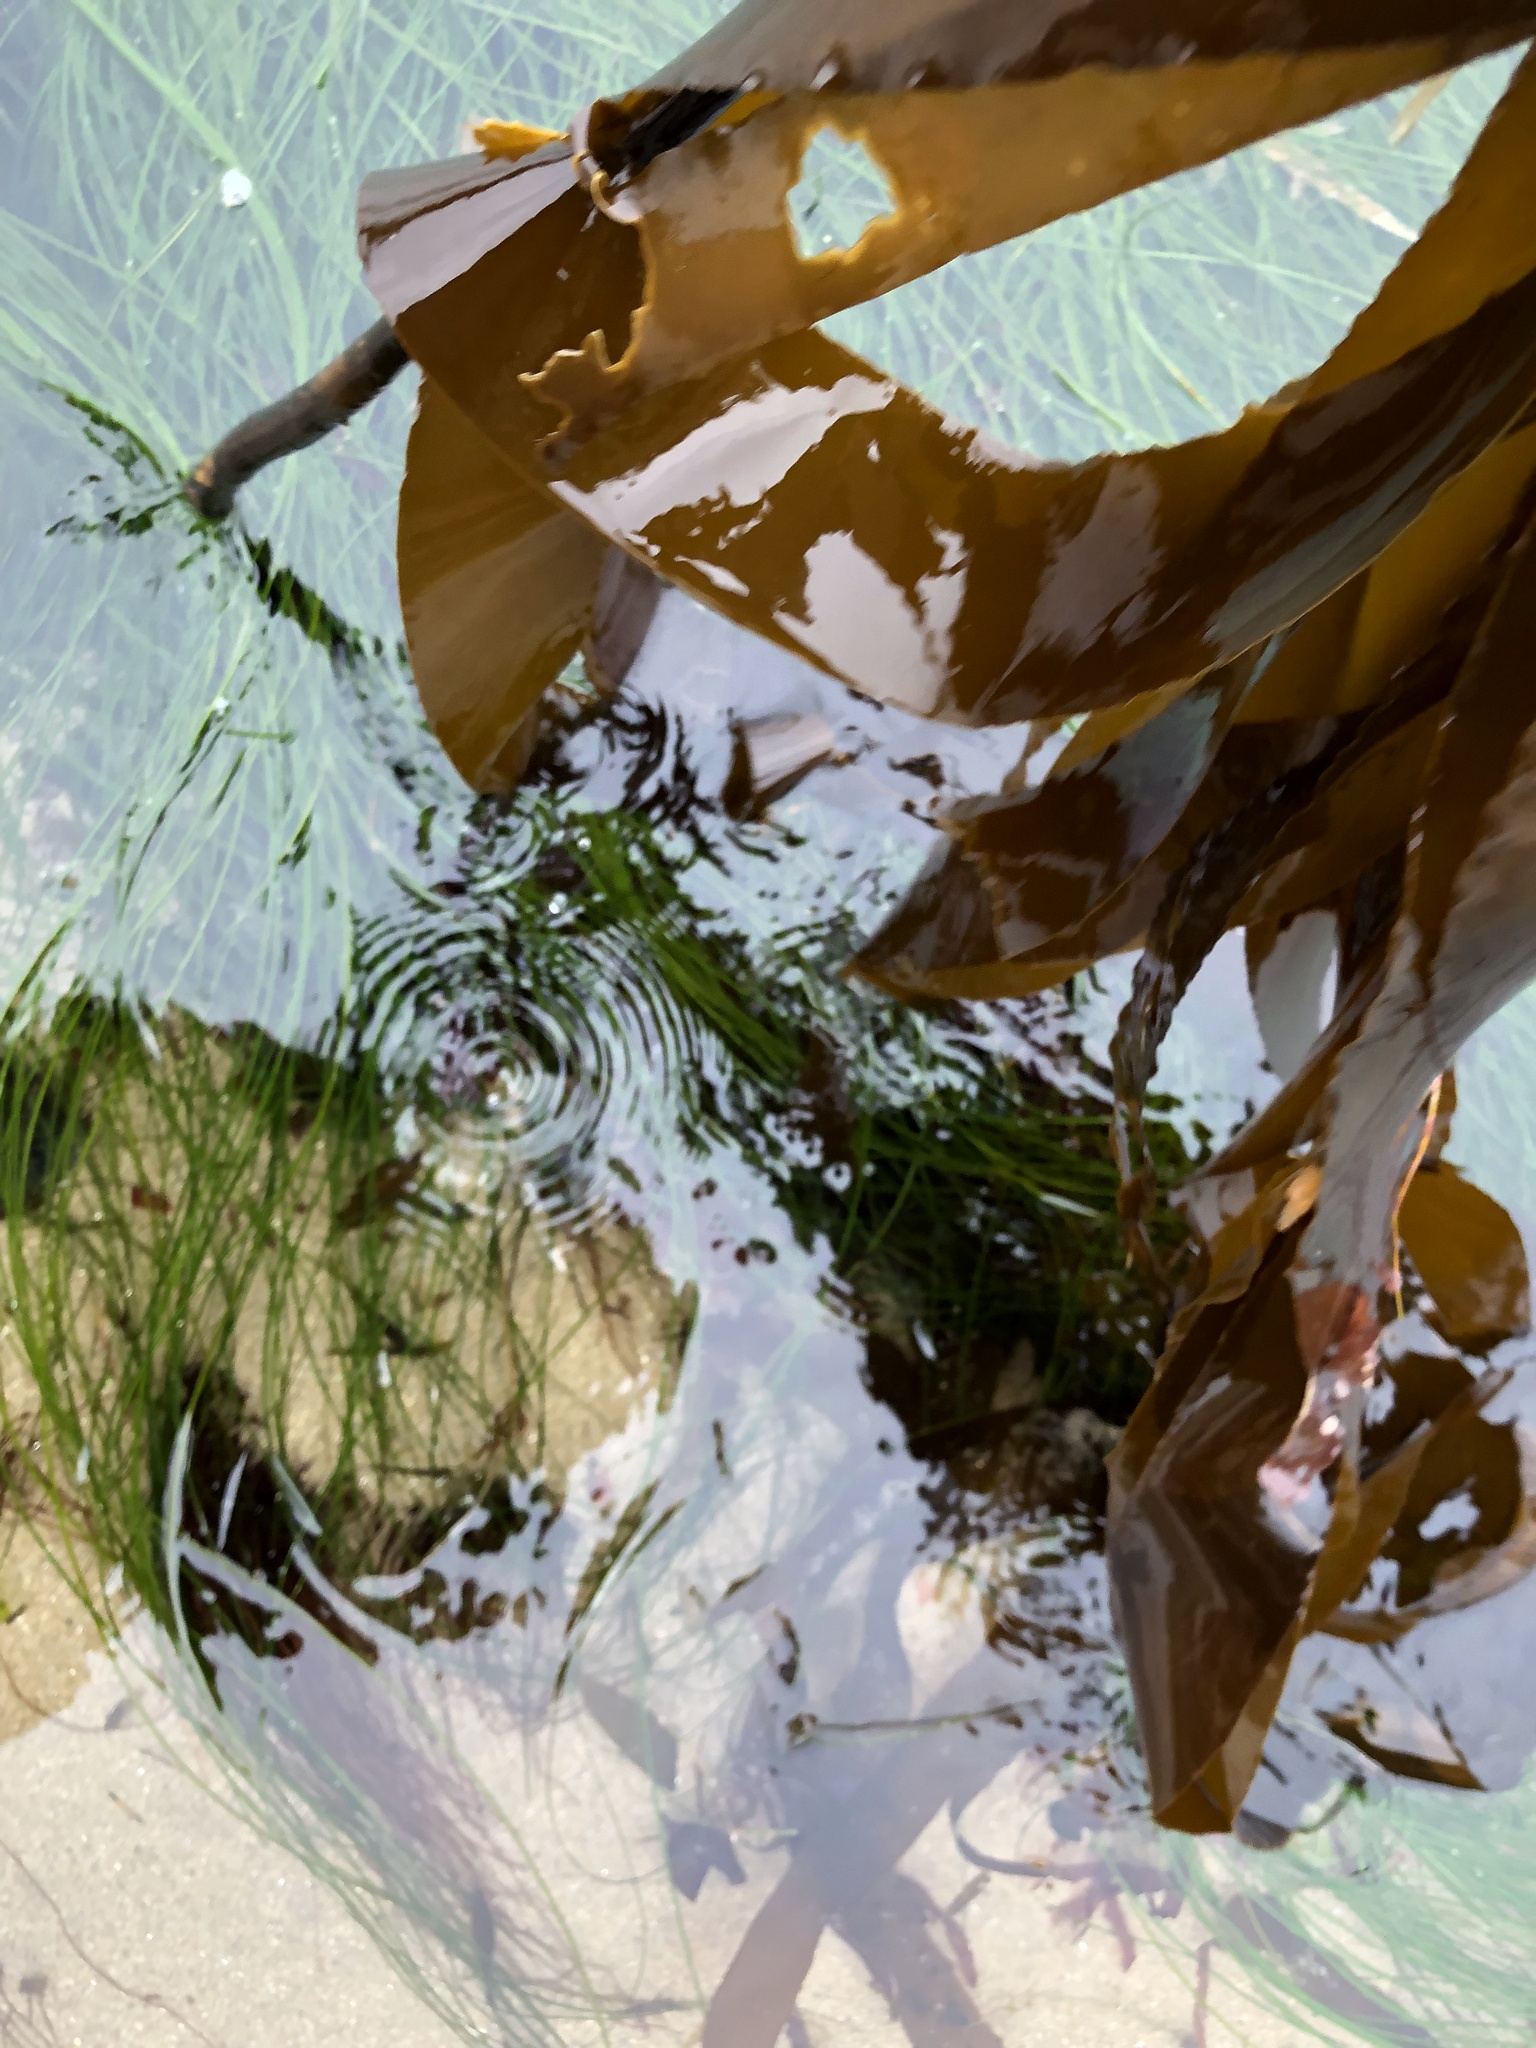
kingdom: Chromista
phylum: Ochrophyta
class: Phaeophyceae
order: Laminariales
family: Alariaceae
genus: Pterygophora
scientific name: Pterygophora californica
